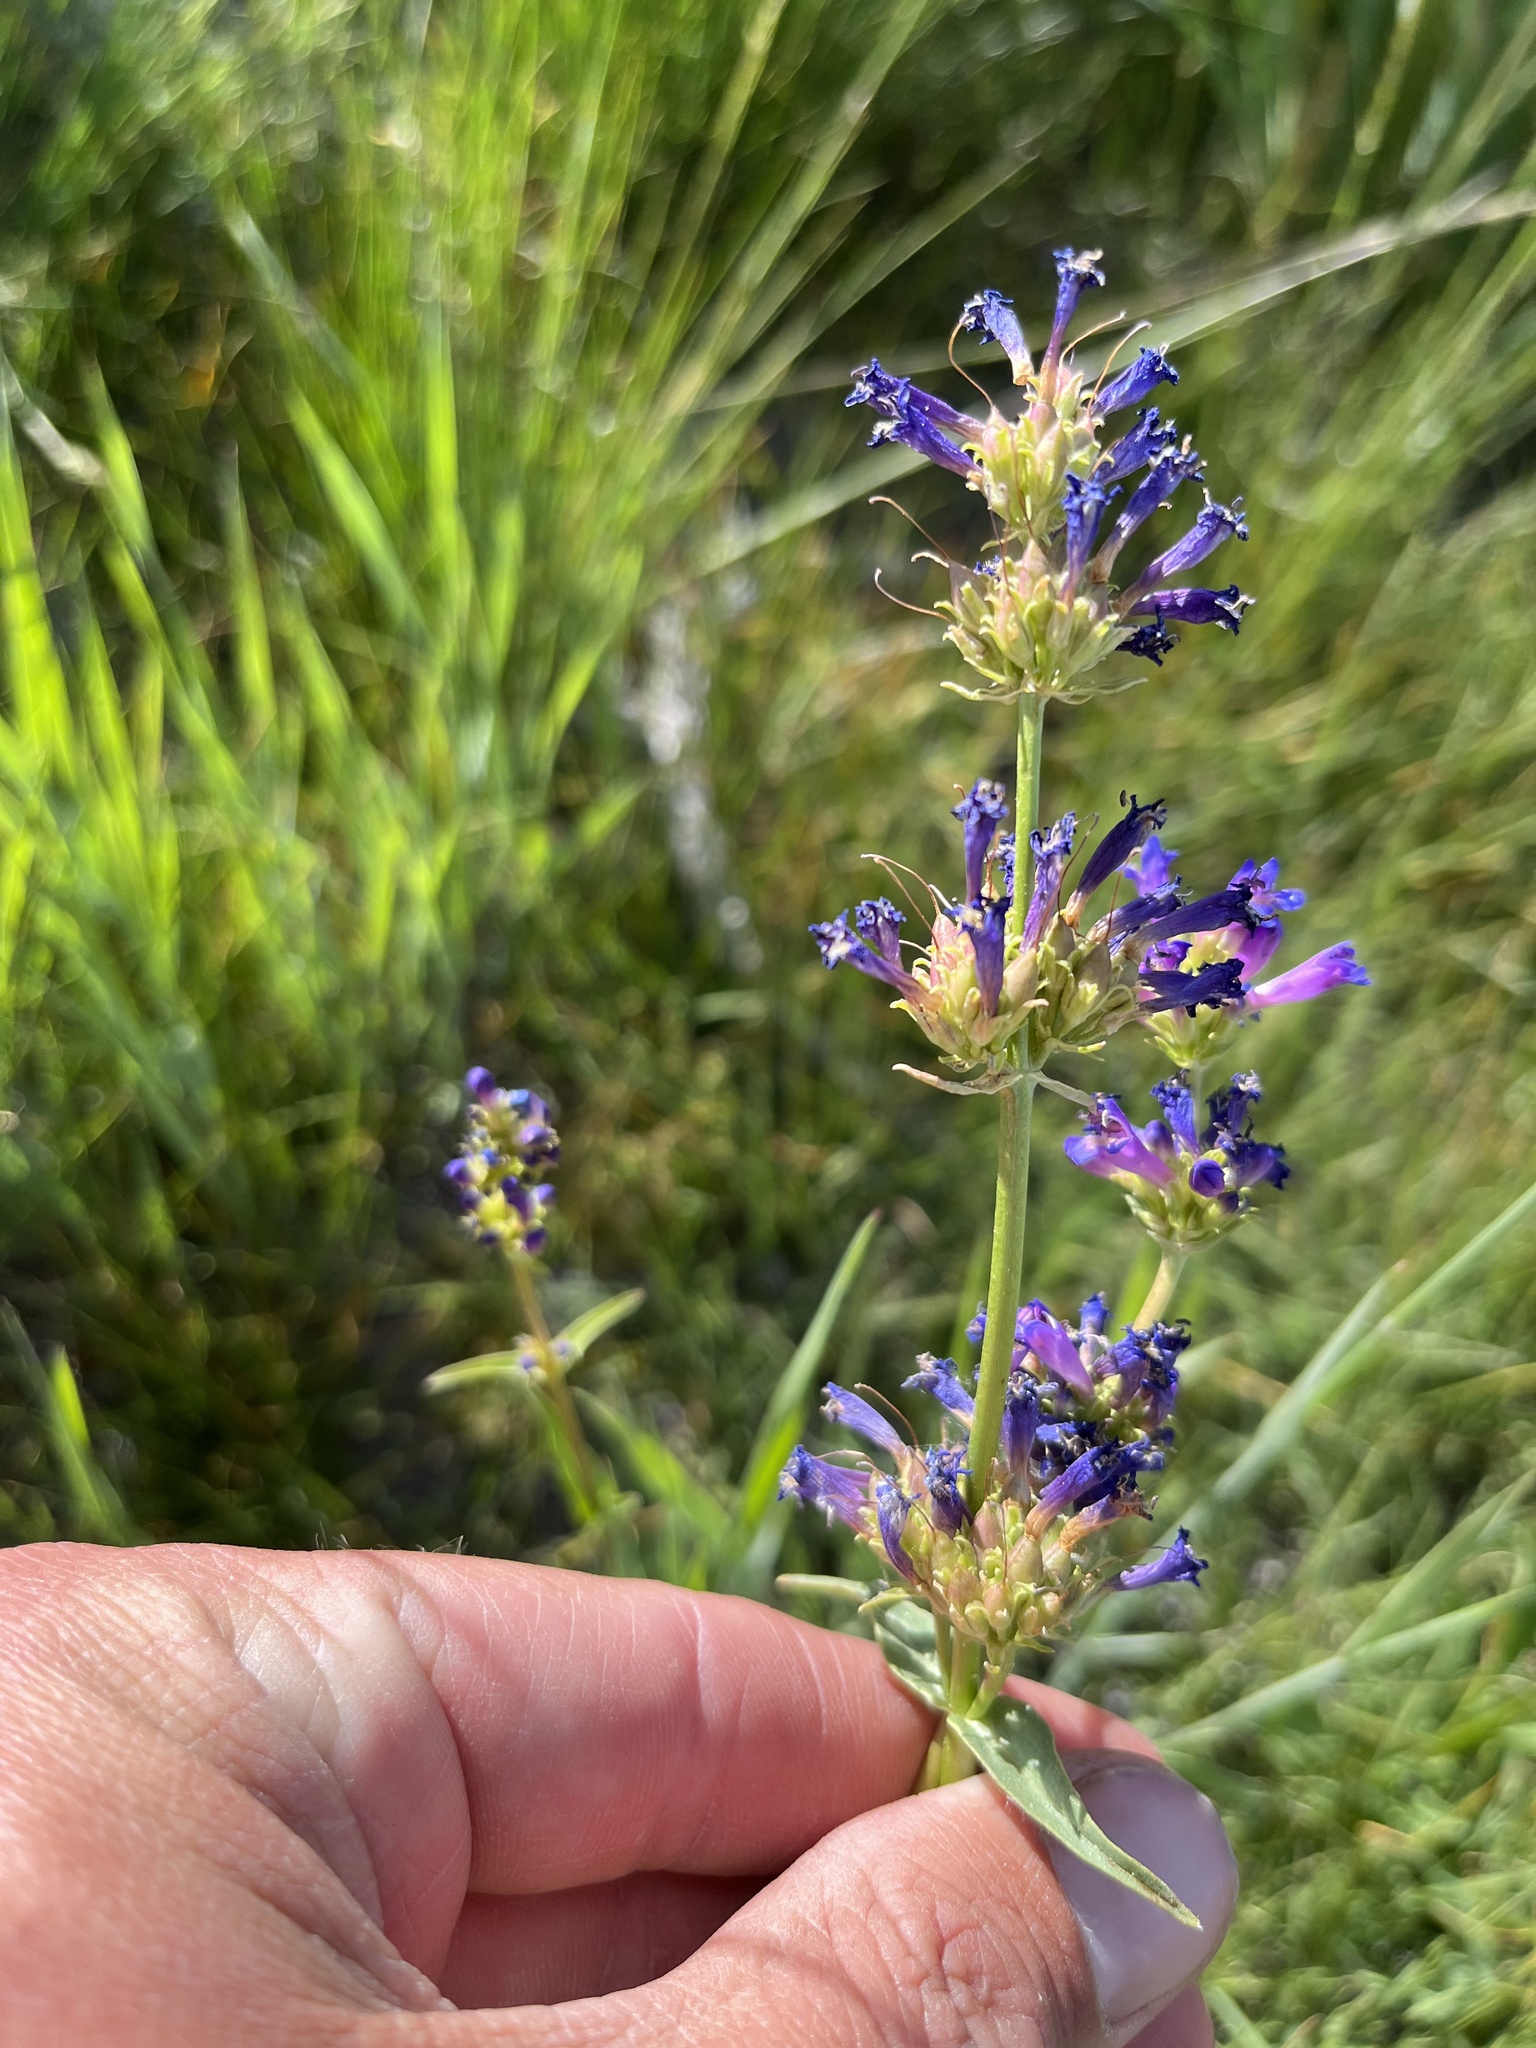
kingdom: Plantae
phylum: Tracheophyta
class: Magnoliopsida
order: Lamiales
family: Plantaginaceae
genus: Penstemon
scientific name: Penstemon rydbergii
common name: Rydberg's beardtongue
